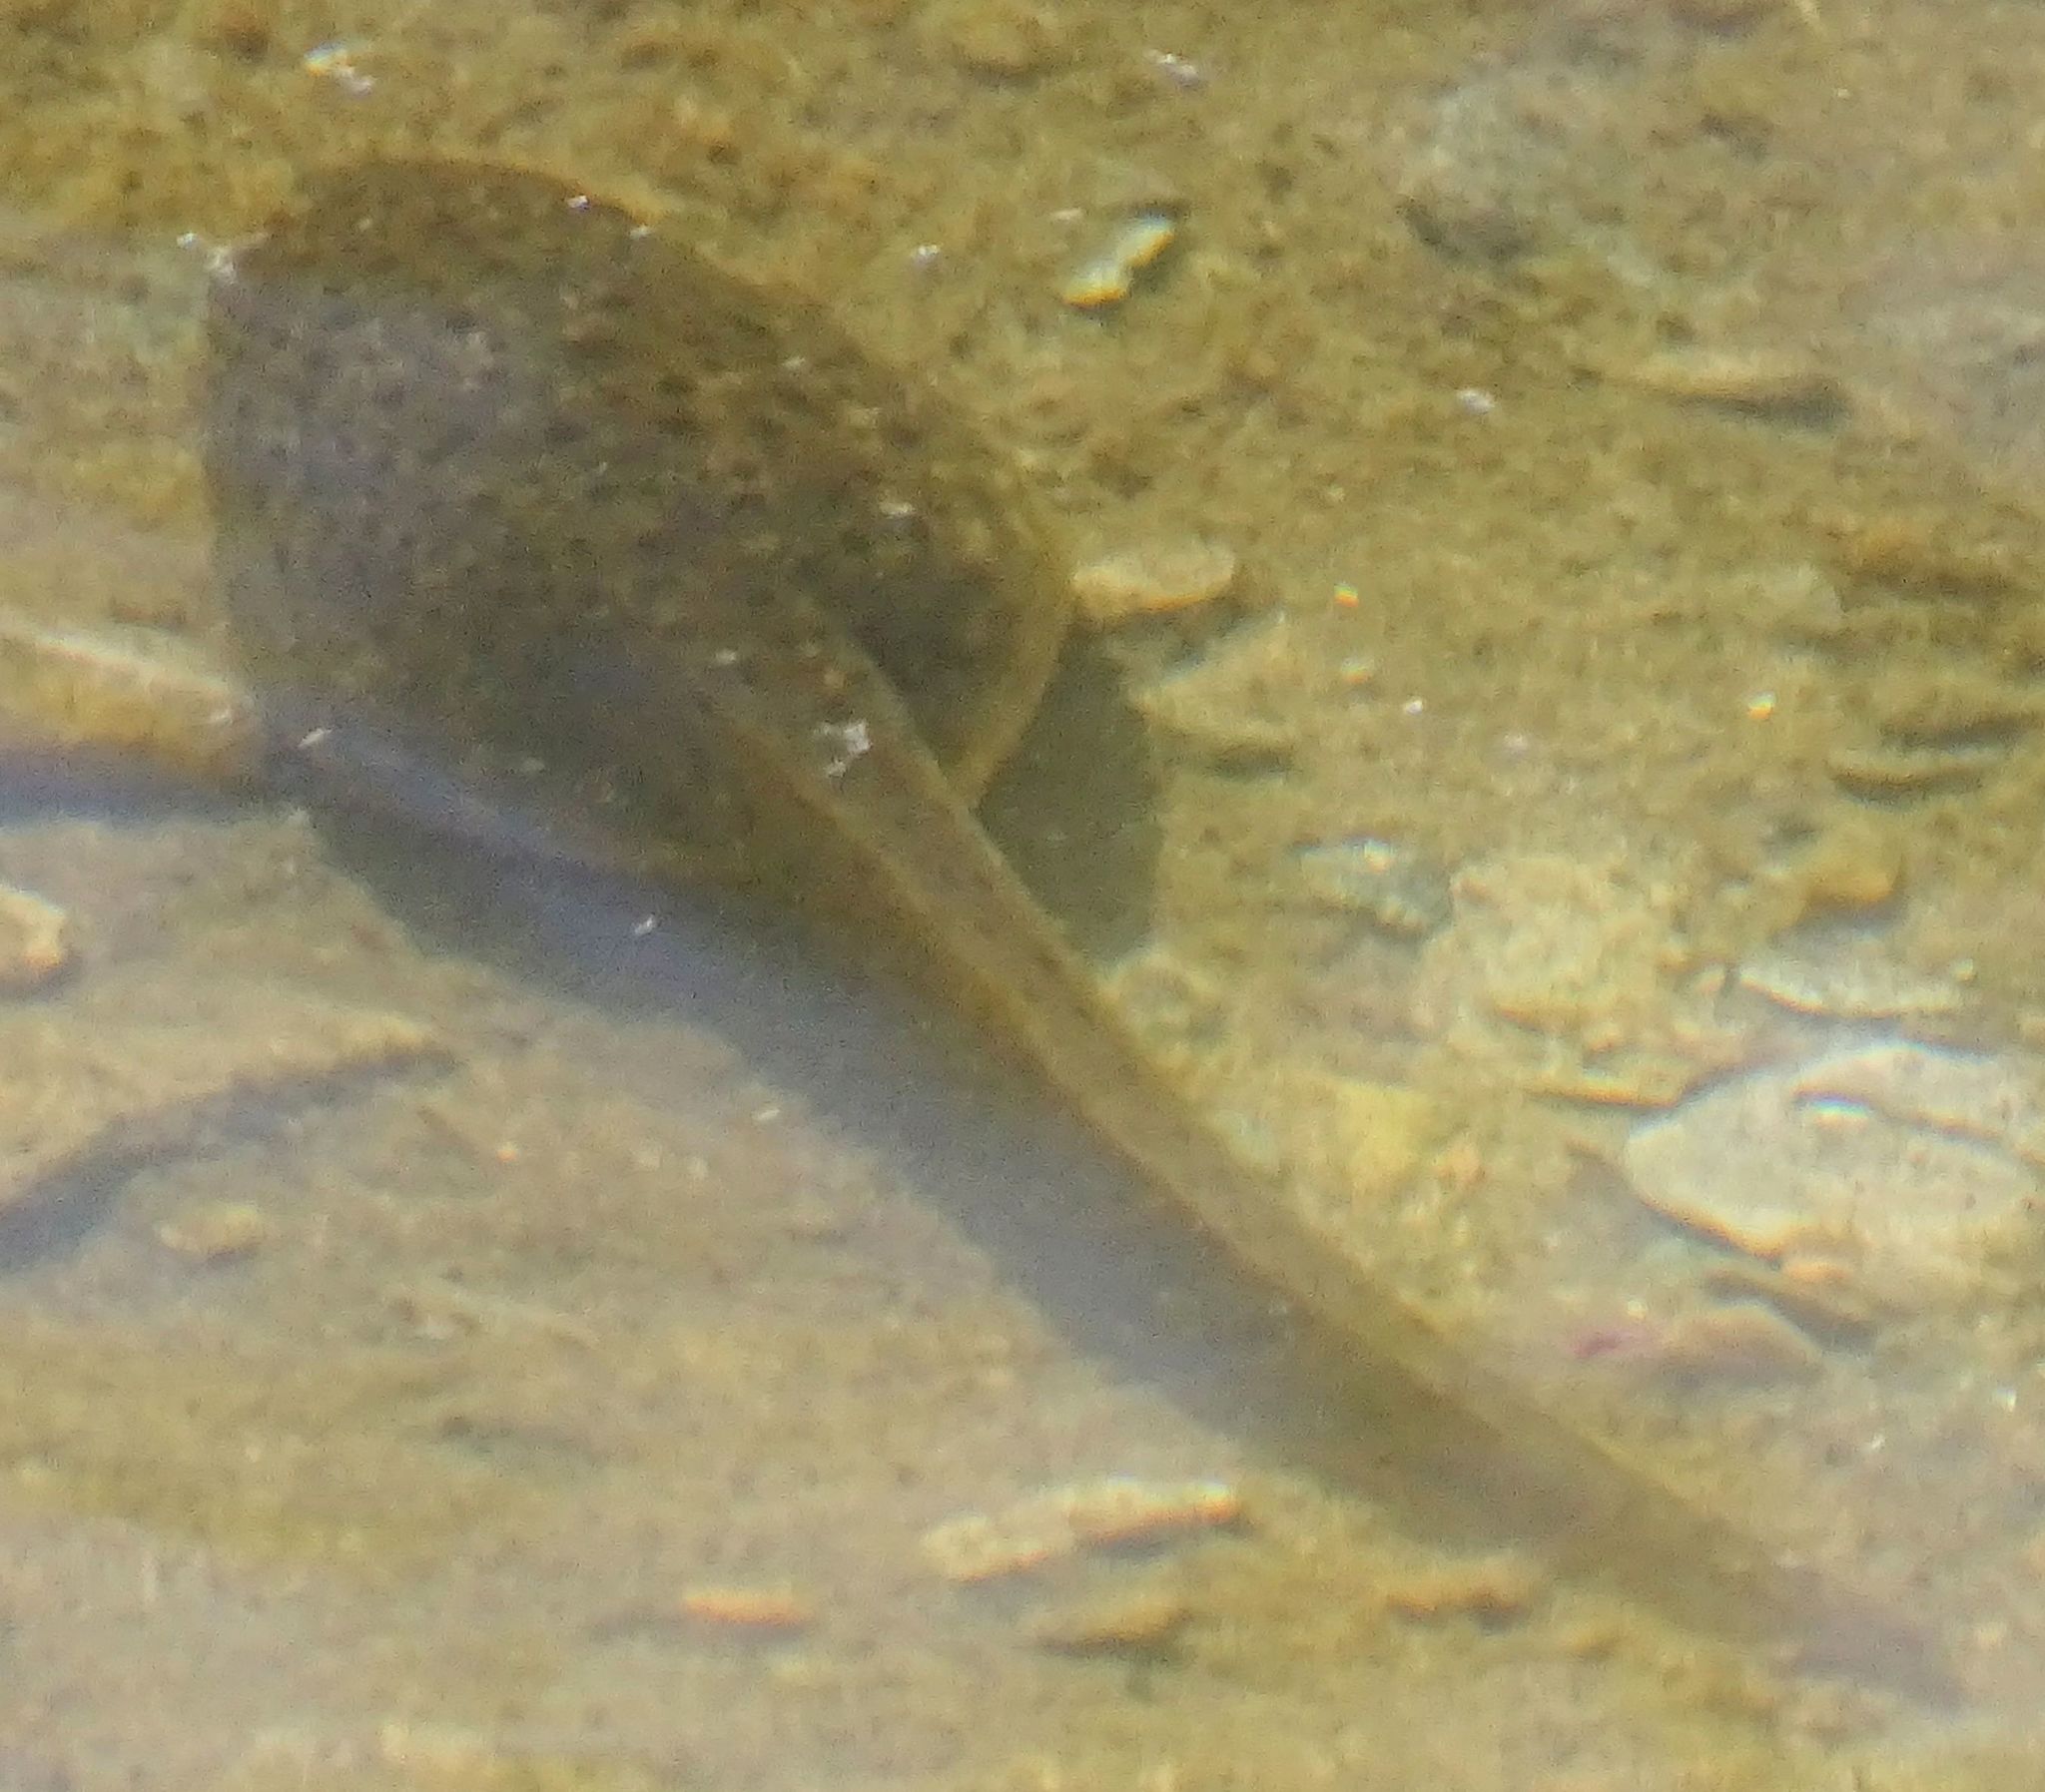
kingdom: Animalia
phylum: Chordata
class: Amphibia
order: Anura
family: Ranidae
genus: Lithobates
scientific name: Lithobates catesbeianus
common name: American bullfrog
